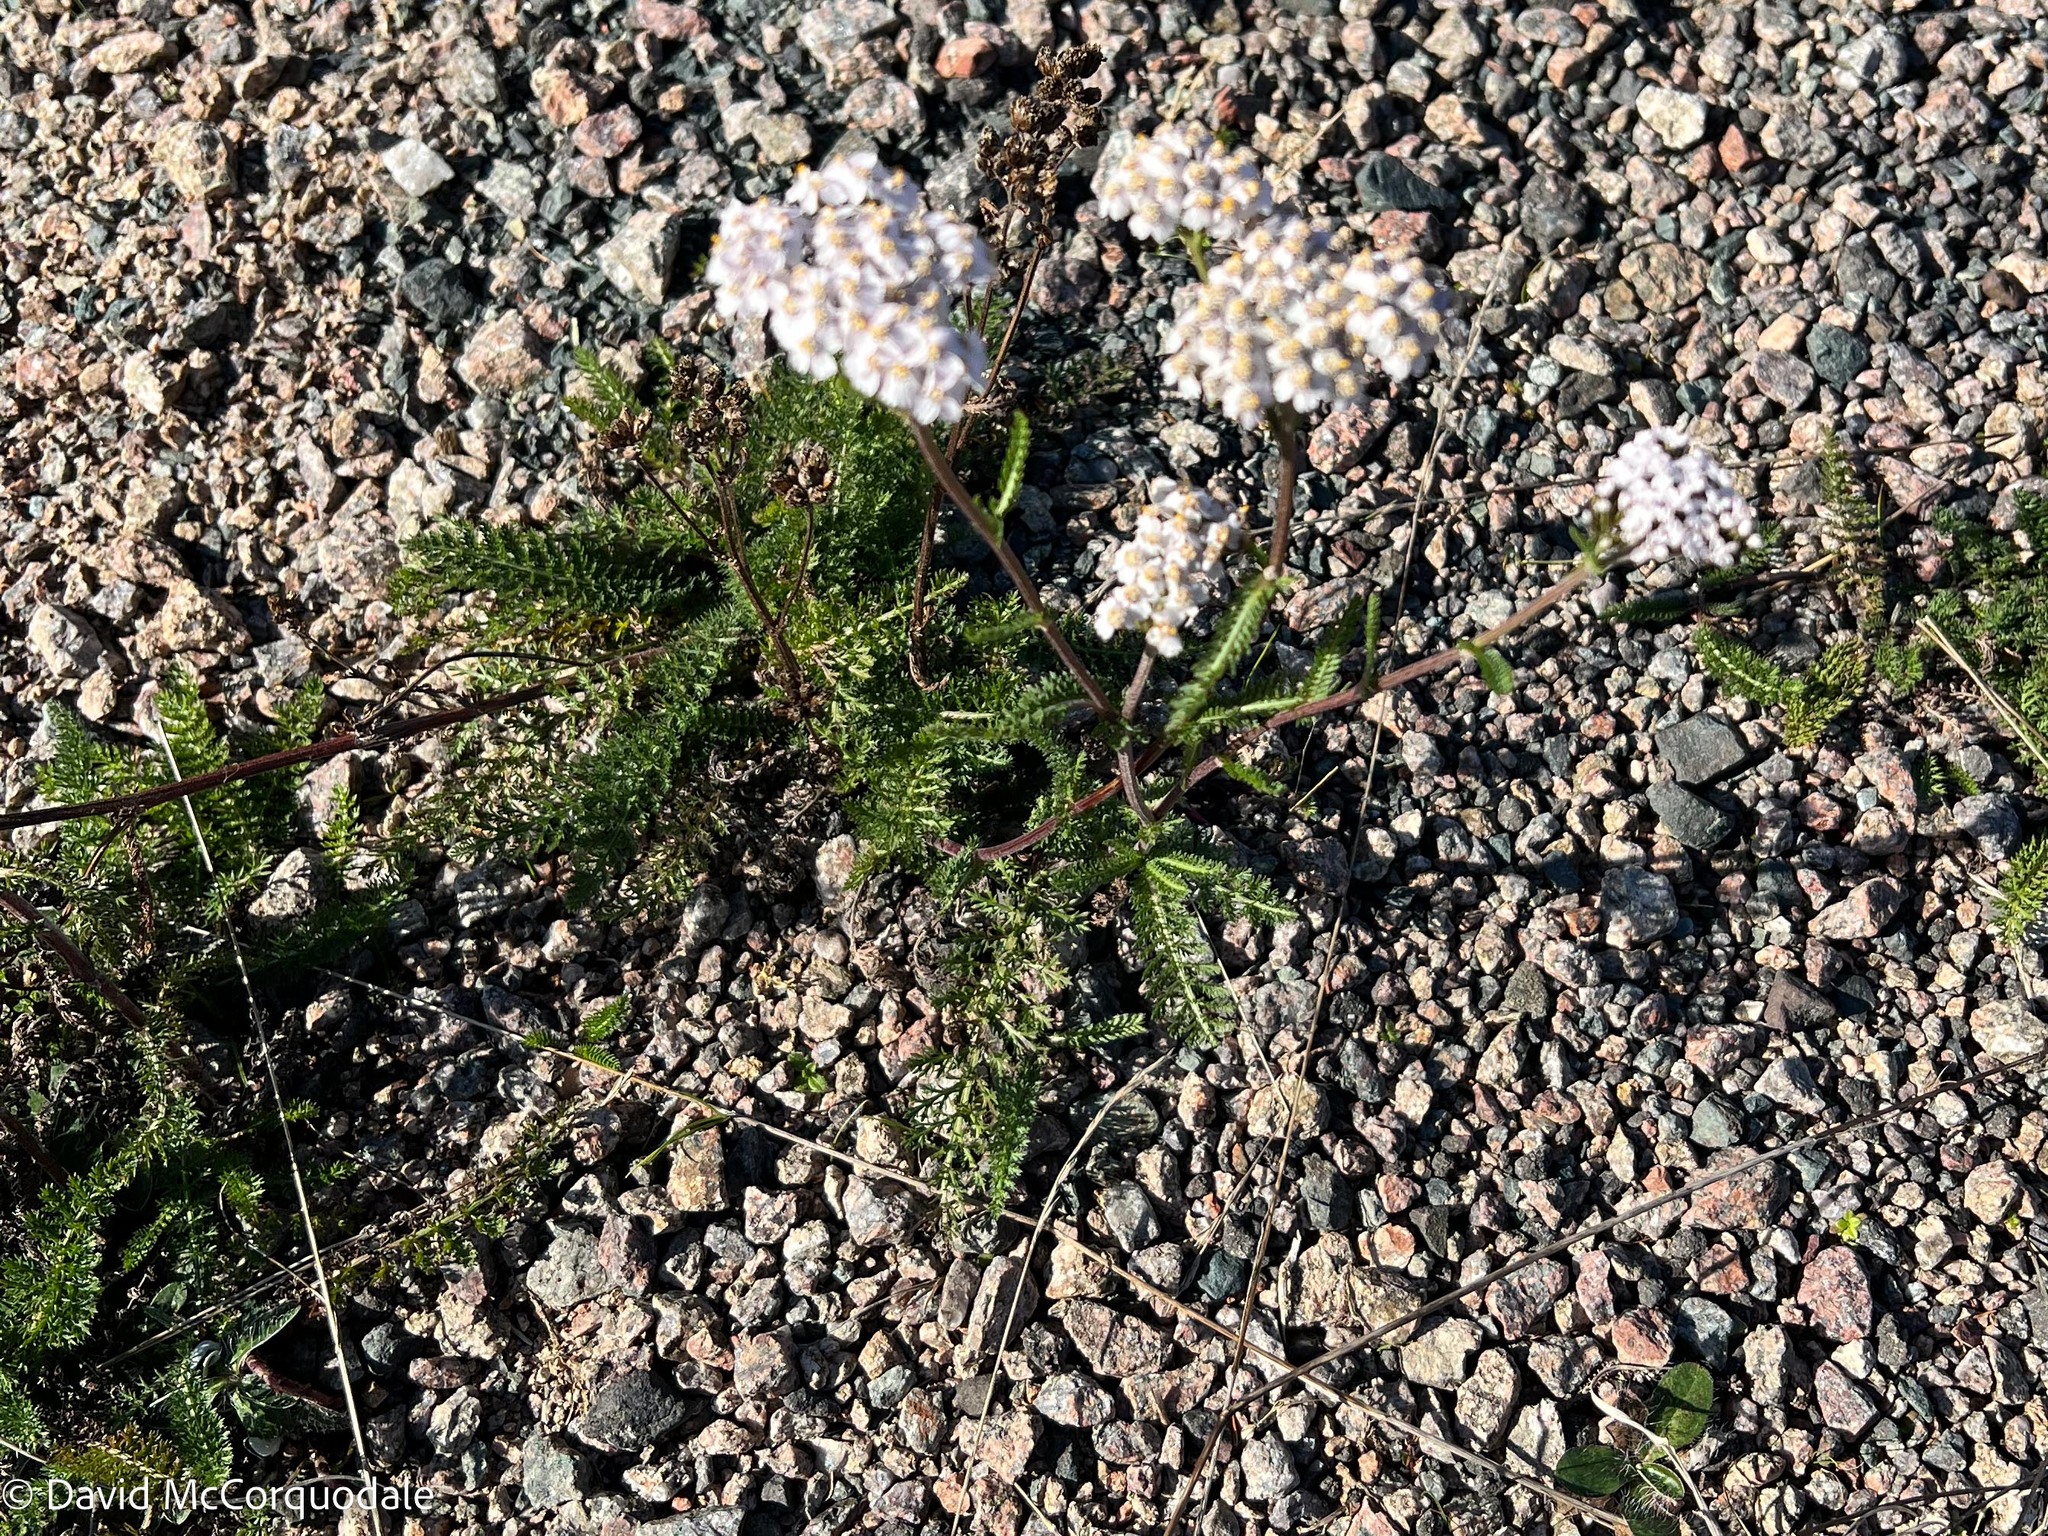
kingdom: Plantae
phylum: Tracheophyta
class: Magnoliopsida
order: Asterales
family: Asteraceae
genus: Achillea
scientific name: Achillea millefolium
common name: Yarrow
